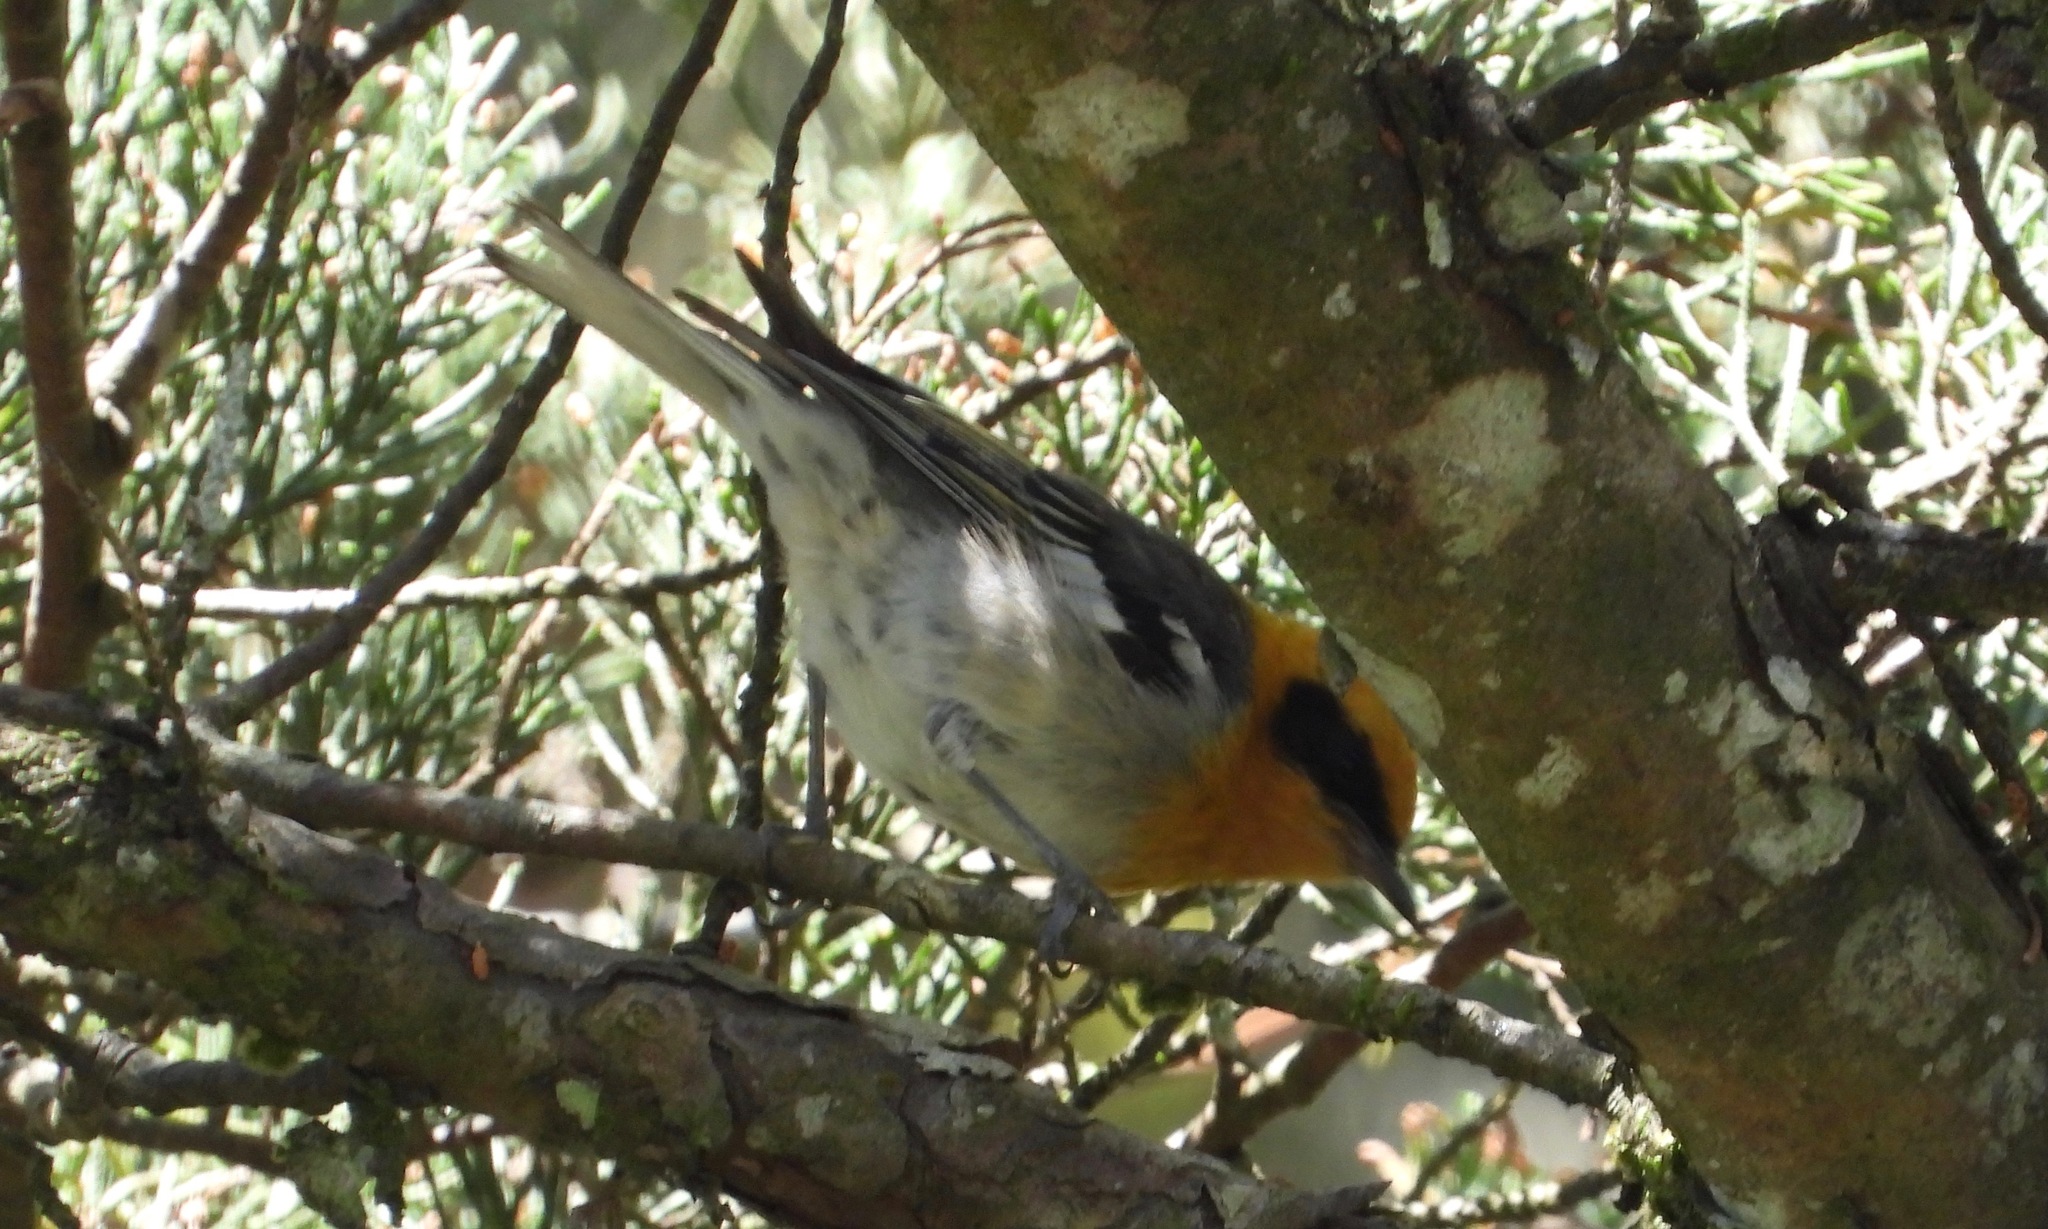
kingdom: Animalia
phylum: Chordata
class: Aves
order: Passeriformes
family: Peucedramidae
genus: Peucedramus
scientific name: Peucedramus taeniatus
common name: Olive warbler
